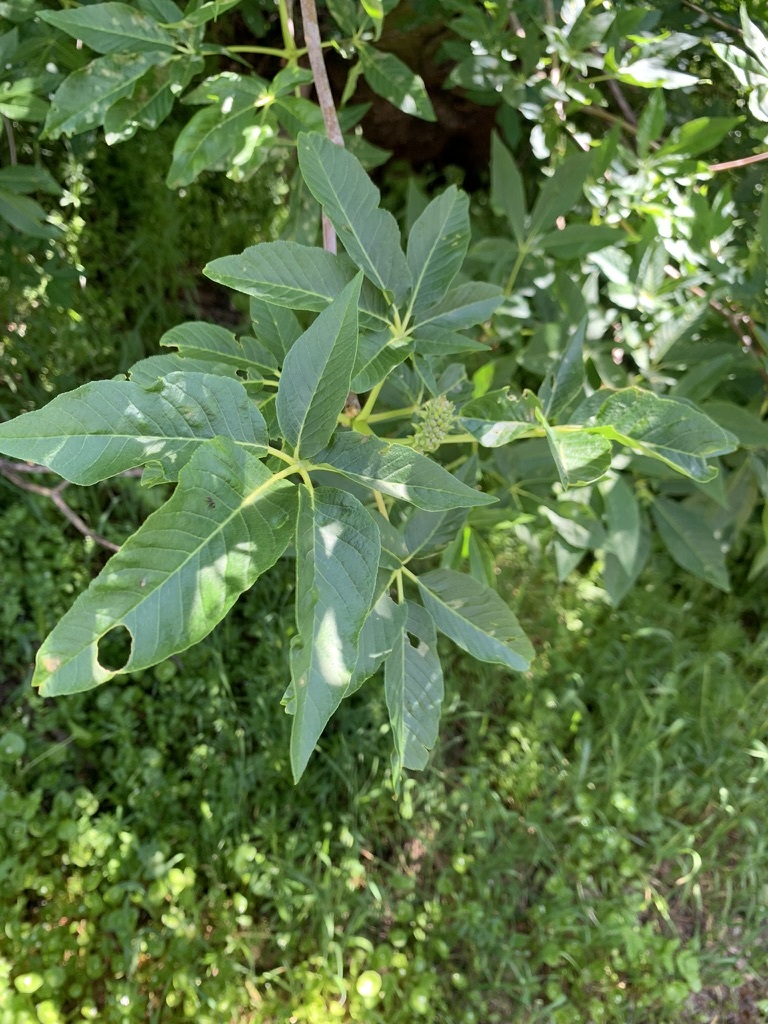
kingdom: Plantae
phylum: Tracheophyta
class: Magnoliopsida
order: Sapindales
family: Sapindaceae
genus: Aesculus
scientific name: Aesculus californica
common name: California buckeye
